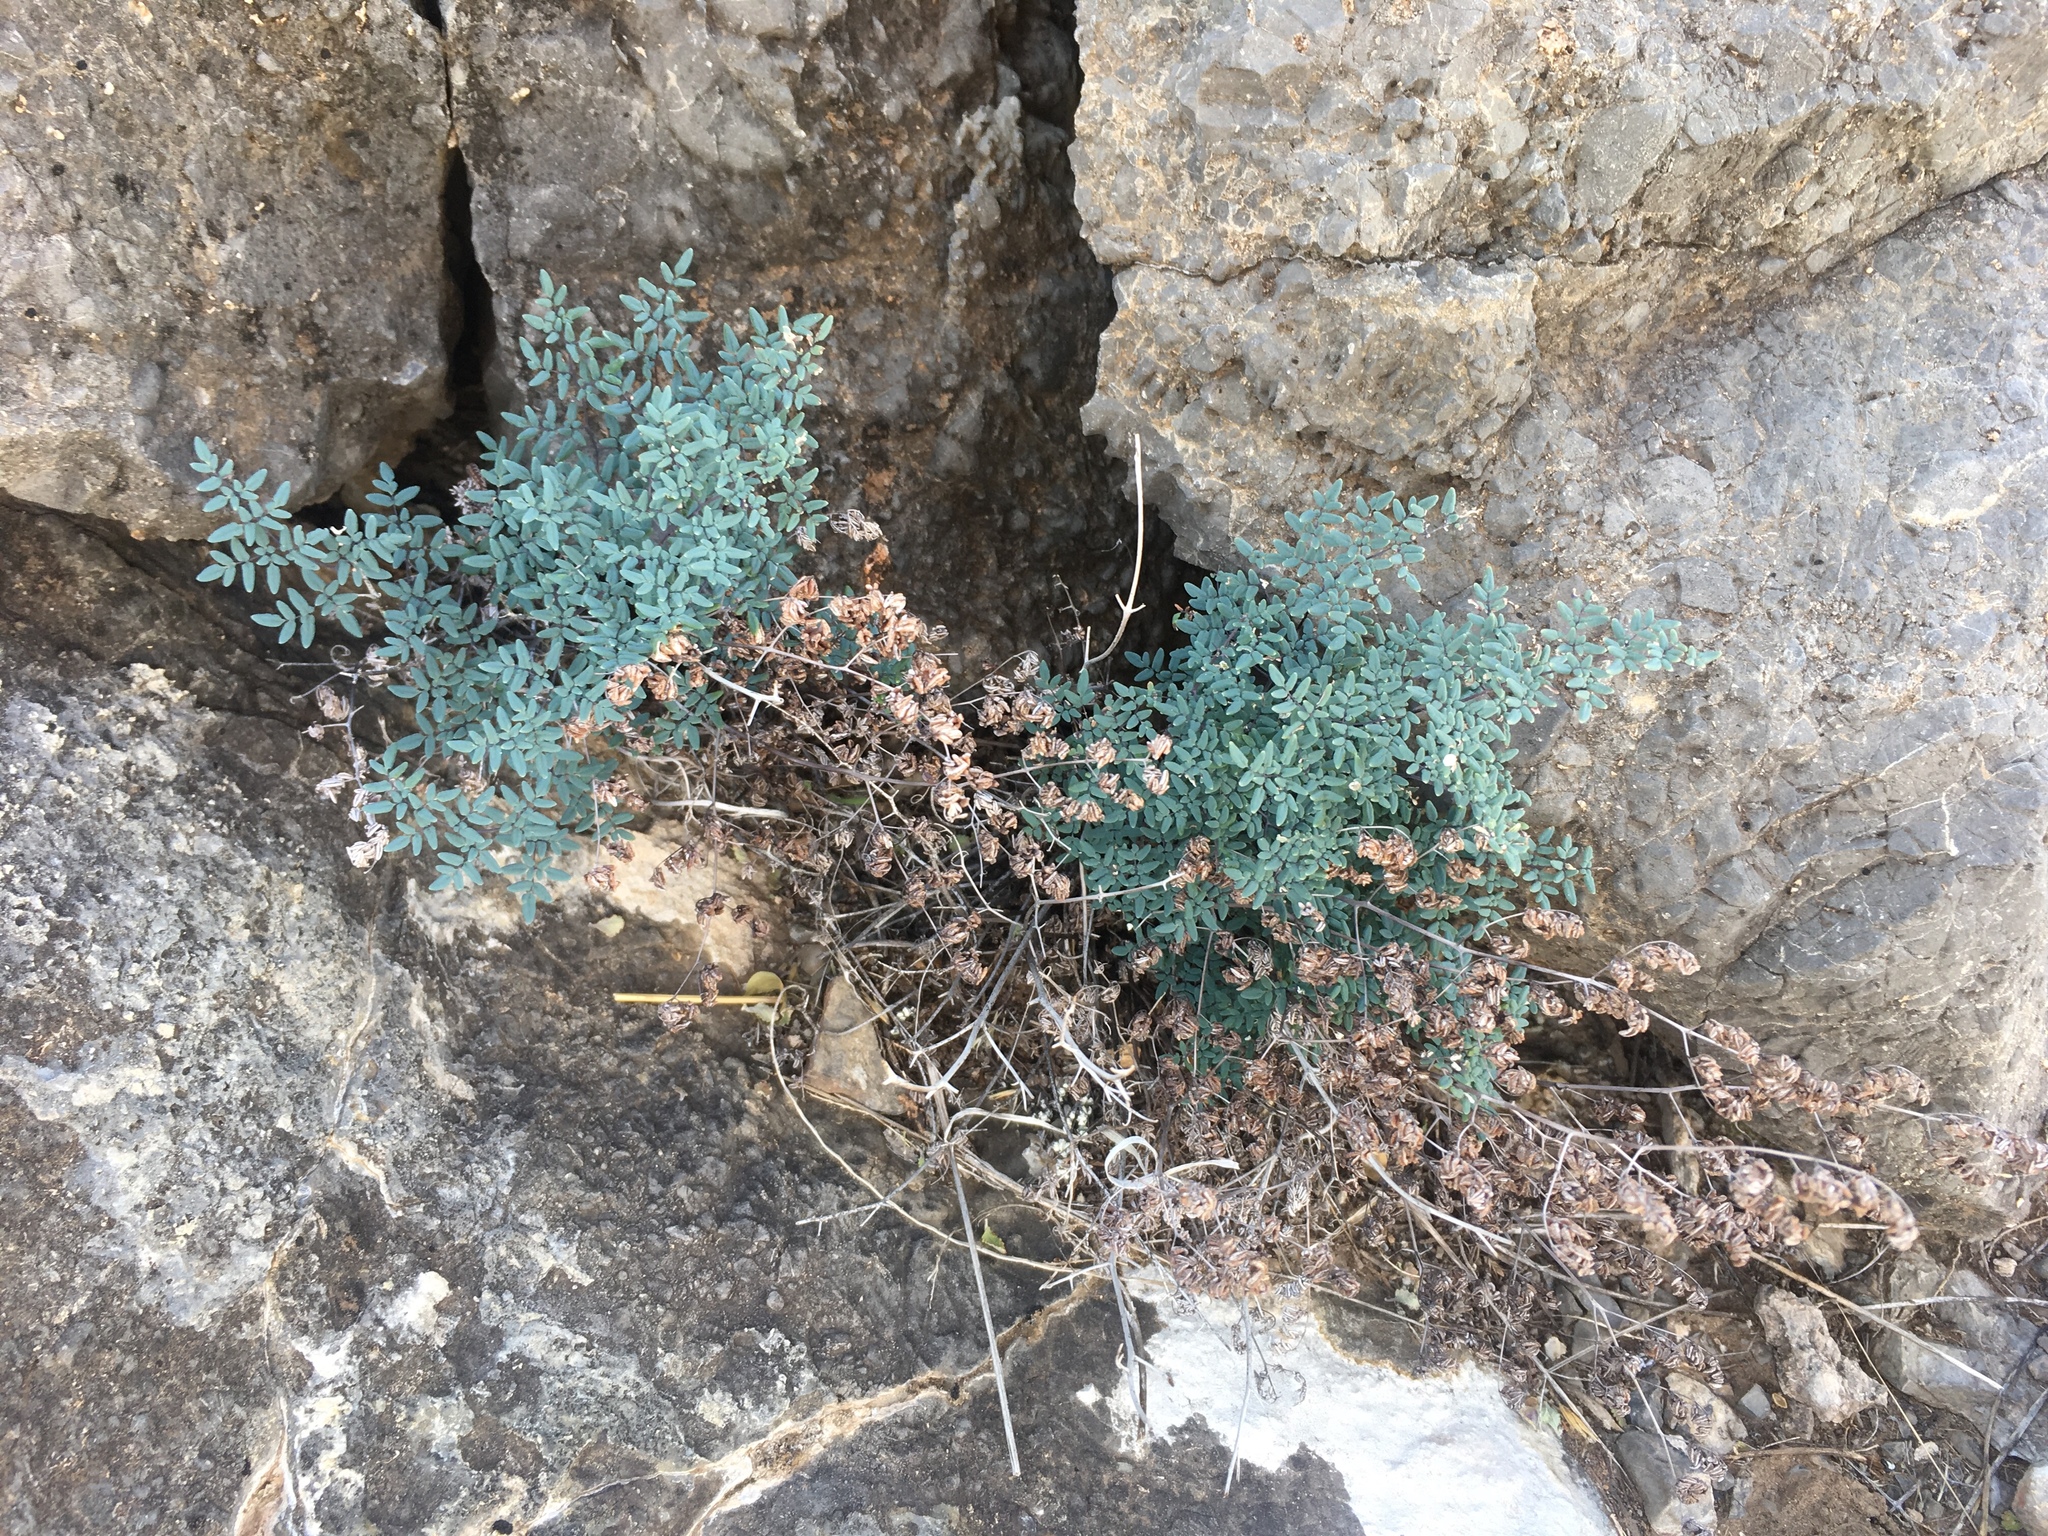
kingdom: Plantae
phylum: Tracheophyta
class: Polypodiopsida
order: Polypodiales
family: Pteridaceae
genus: Argyrochosma
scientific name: Argyrochosma limitanea
